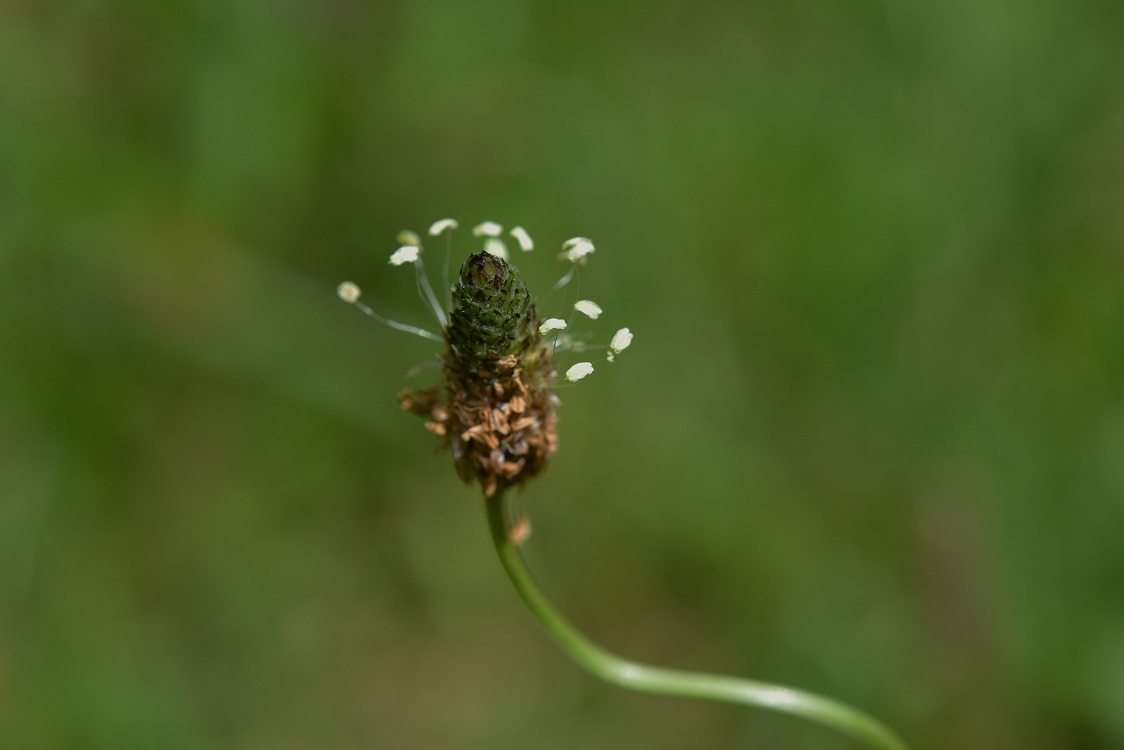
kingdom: Plantae
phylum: Tracheophyta
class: Magnoliopsida
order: Lamiales
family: Plantaginaceae
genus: Plantago
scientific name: Plantago lanceolata
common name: Ribwort plantain
